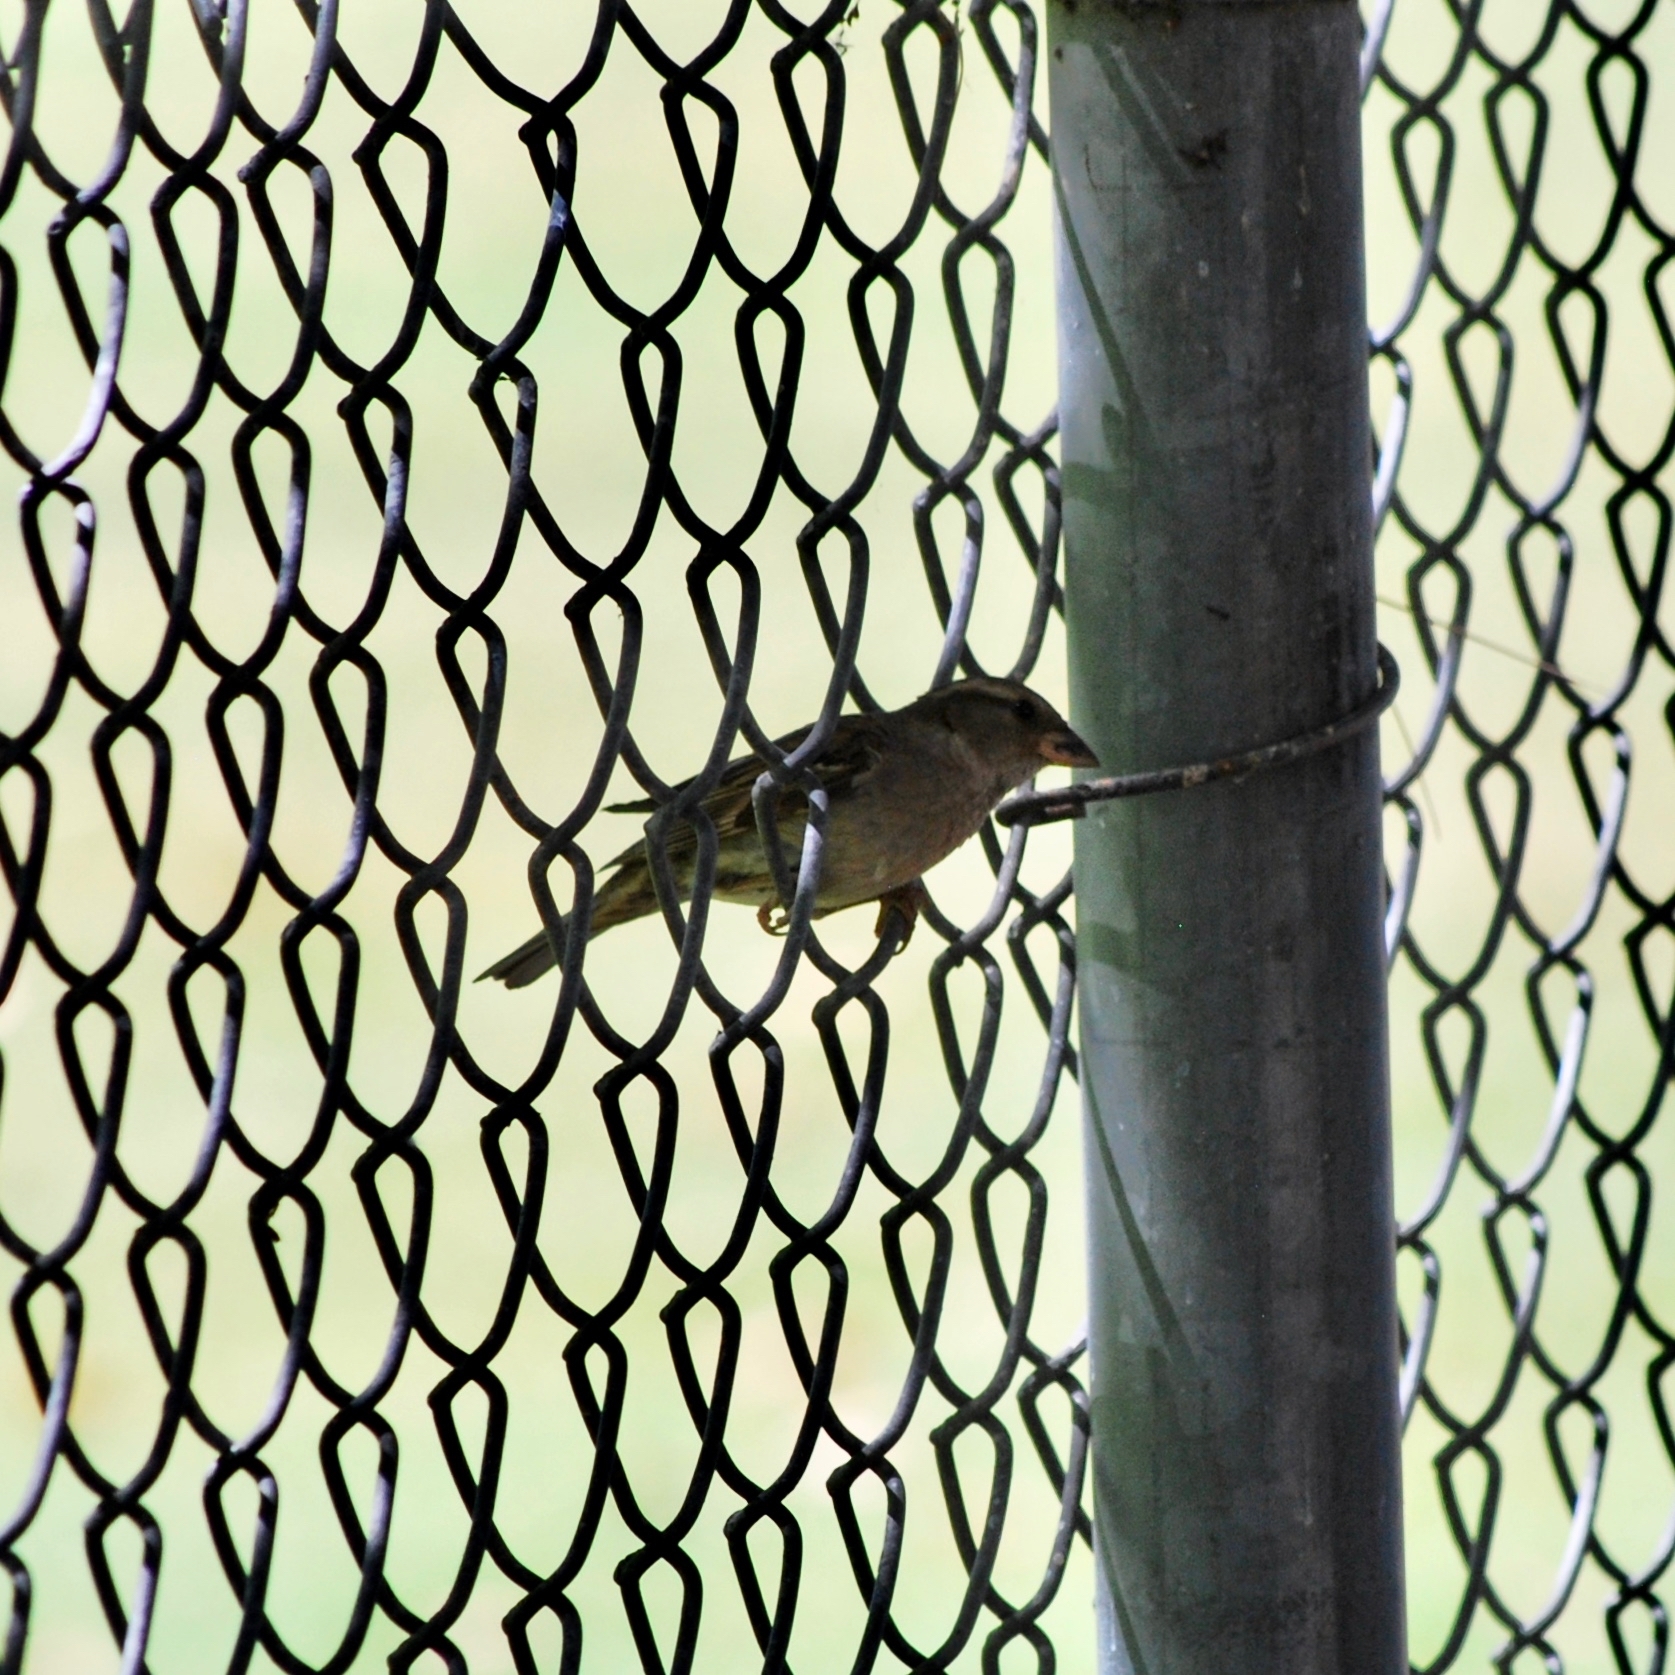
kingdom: Animalia
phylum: Chordata
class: Aves
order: Passeriformes
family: Passeridae
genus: Passer
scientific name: Passer domesticus
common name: House sparrow
